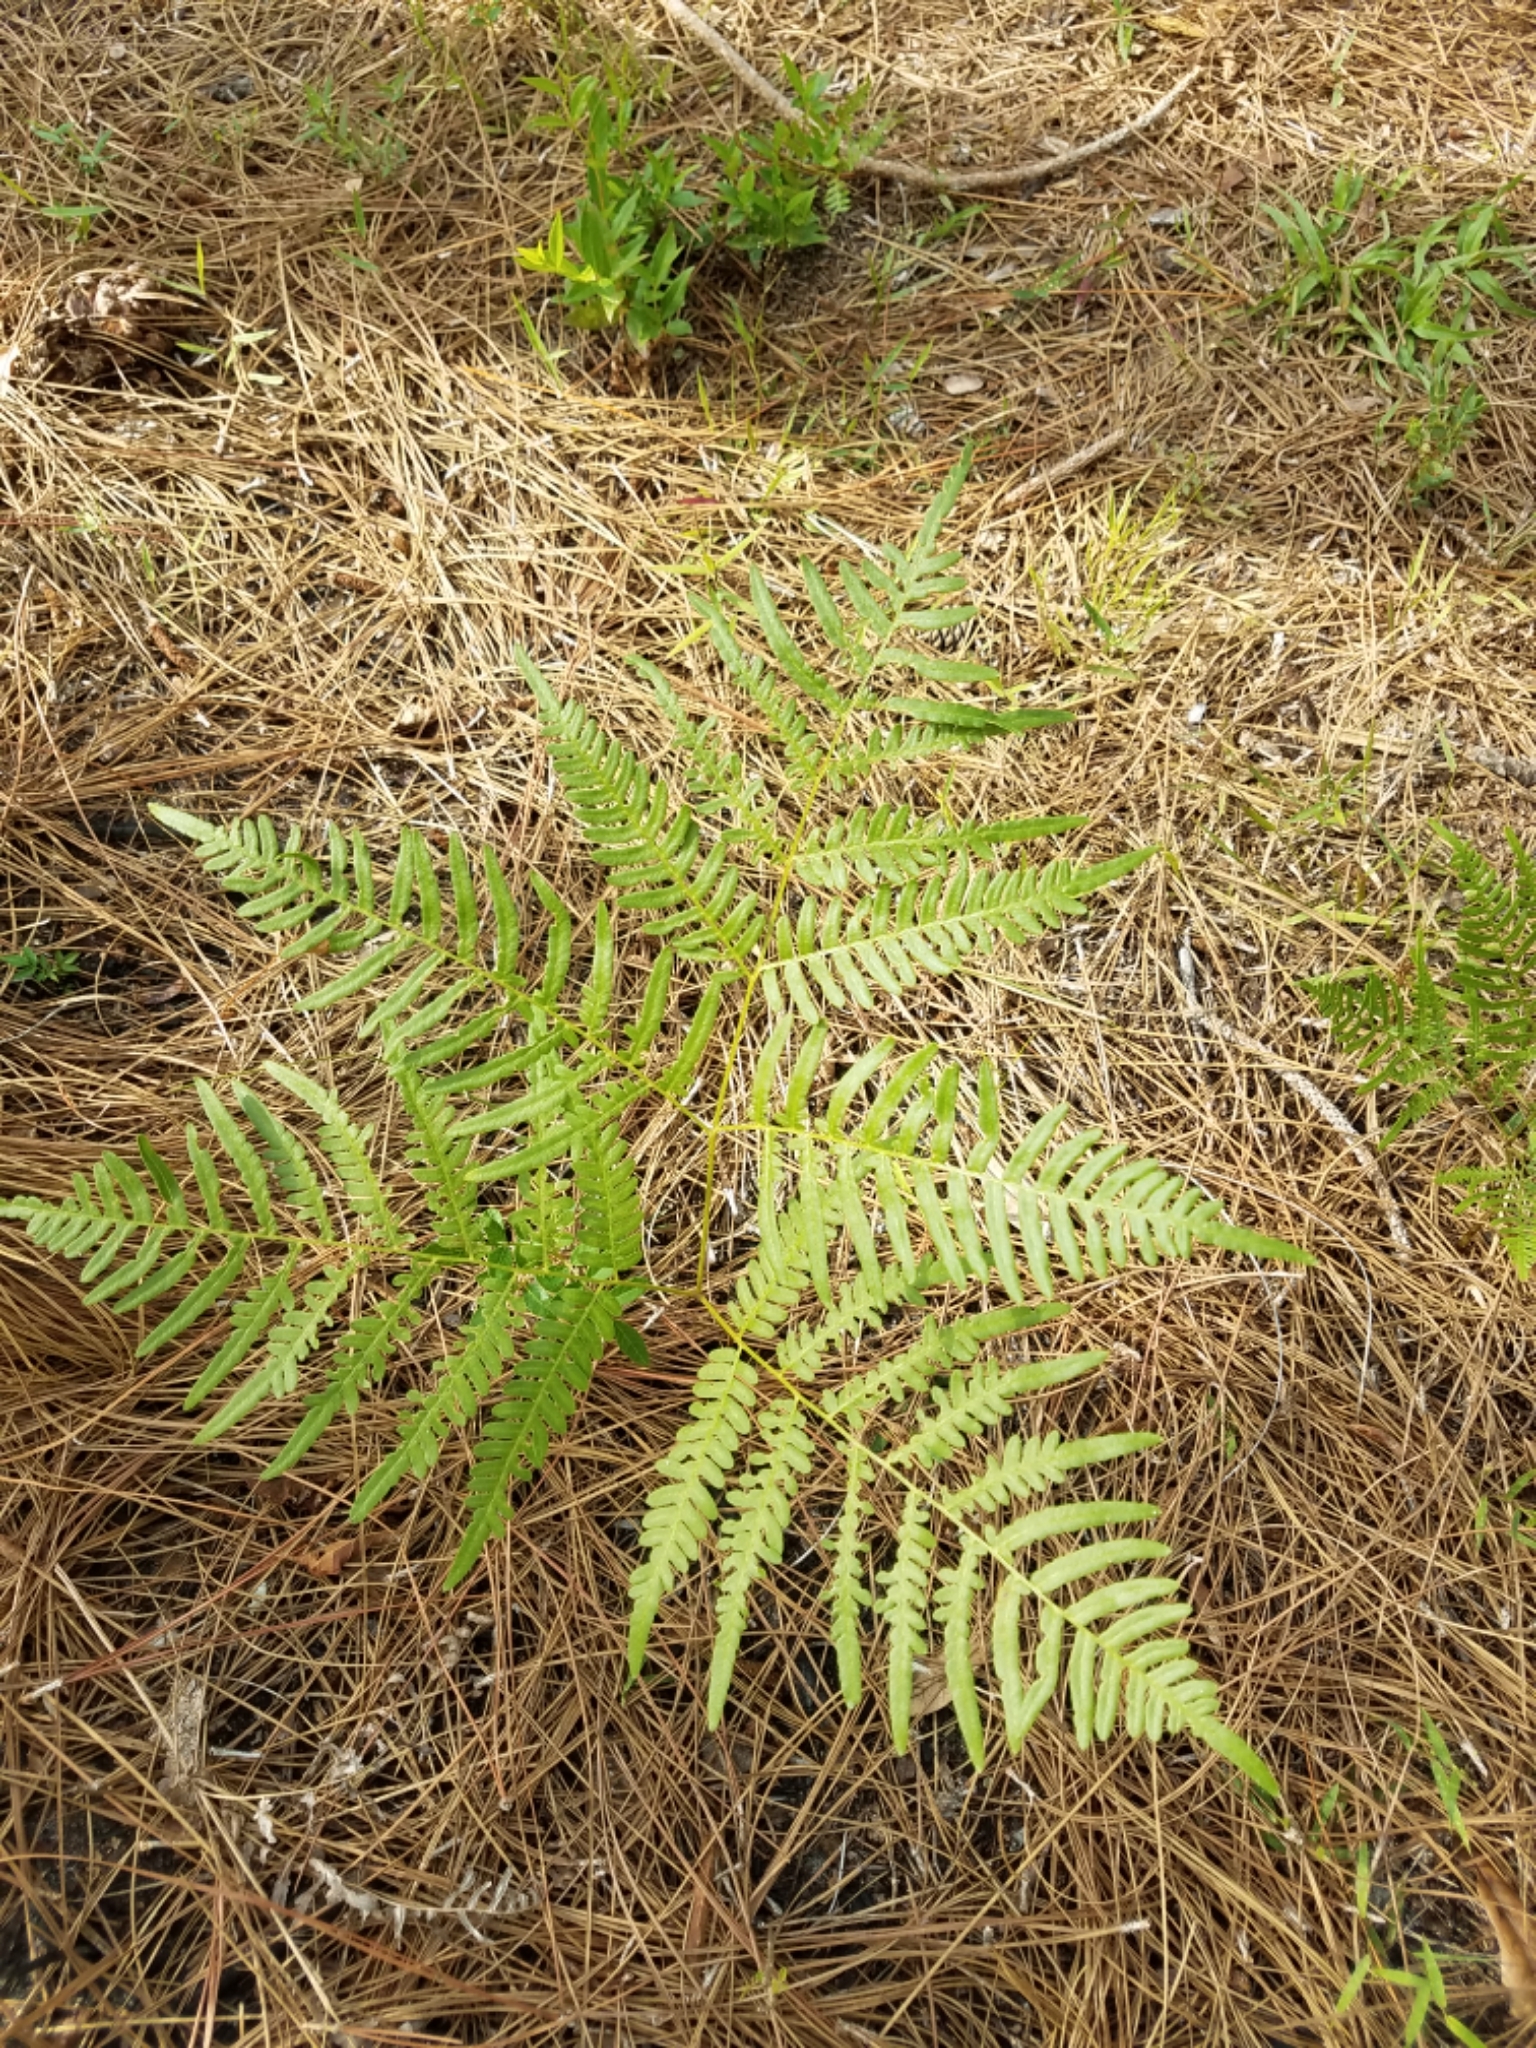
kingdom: Plantae
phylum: Tracheophyta
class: Polypodiopsida
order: Polypodiales
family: Dennstaedtiaceae
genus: Pteridium
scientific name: Pteridium aquilinum
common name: Bracken
